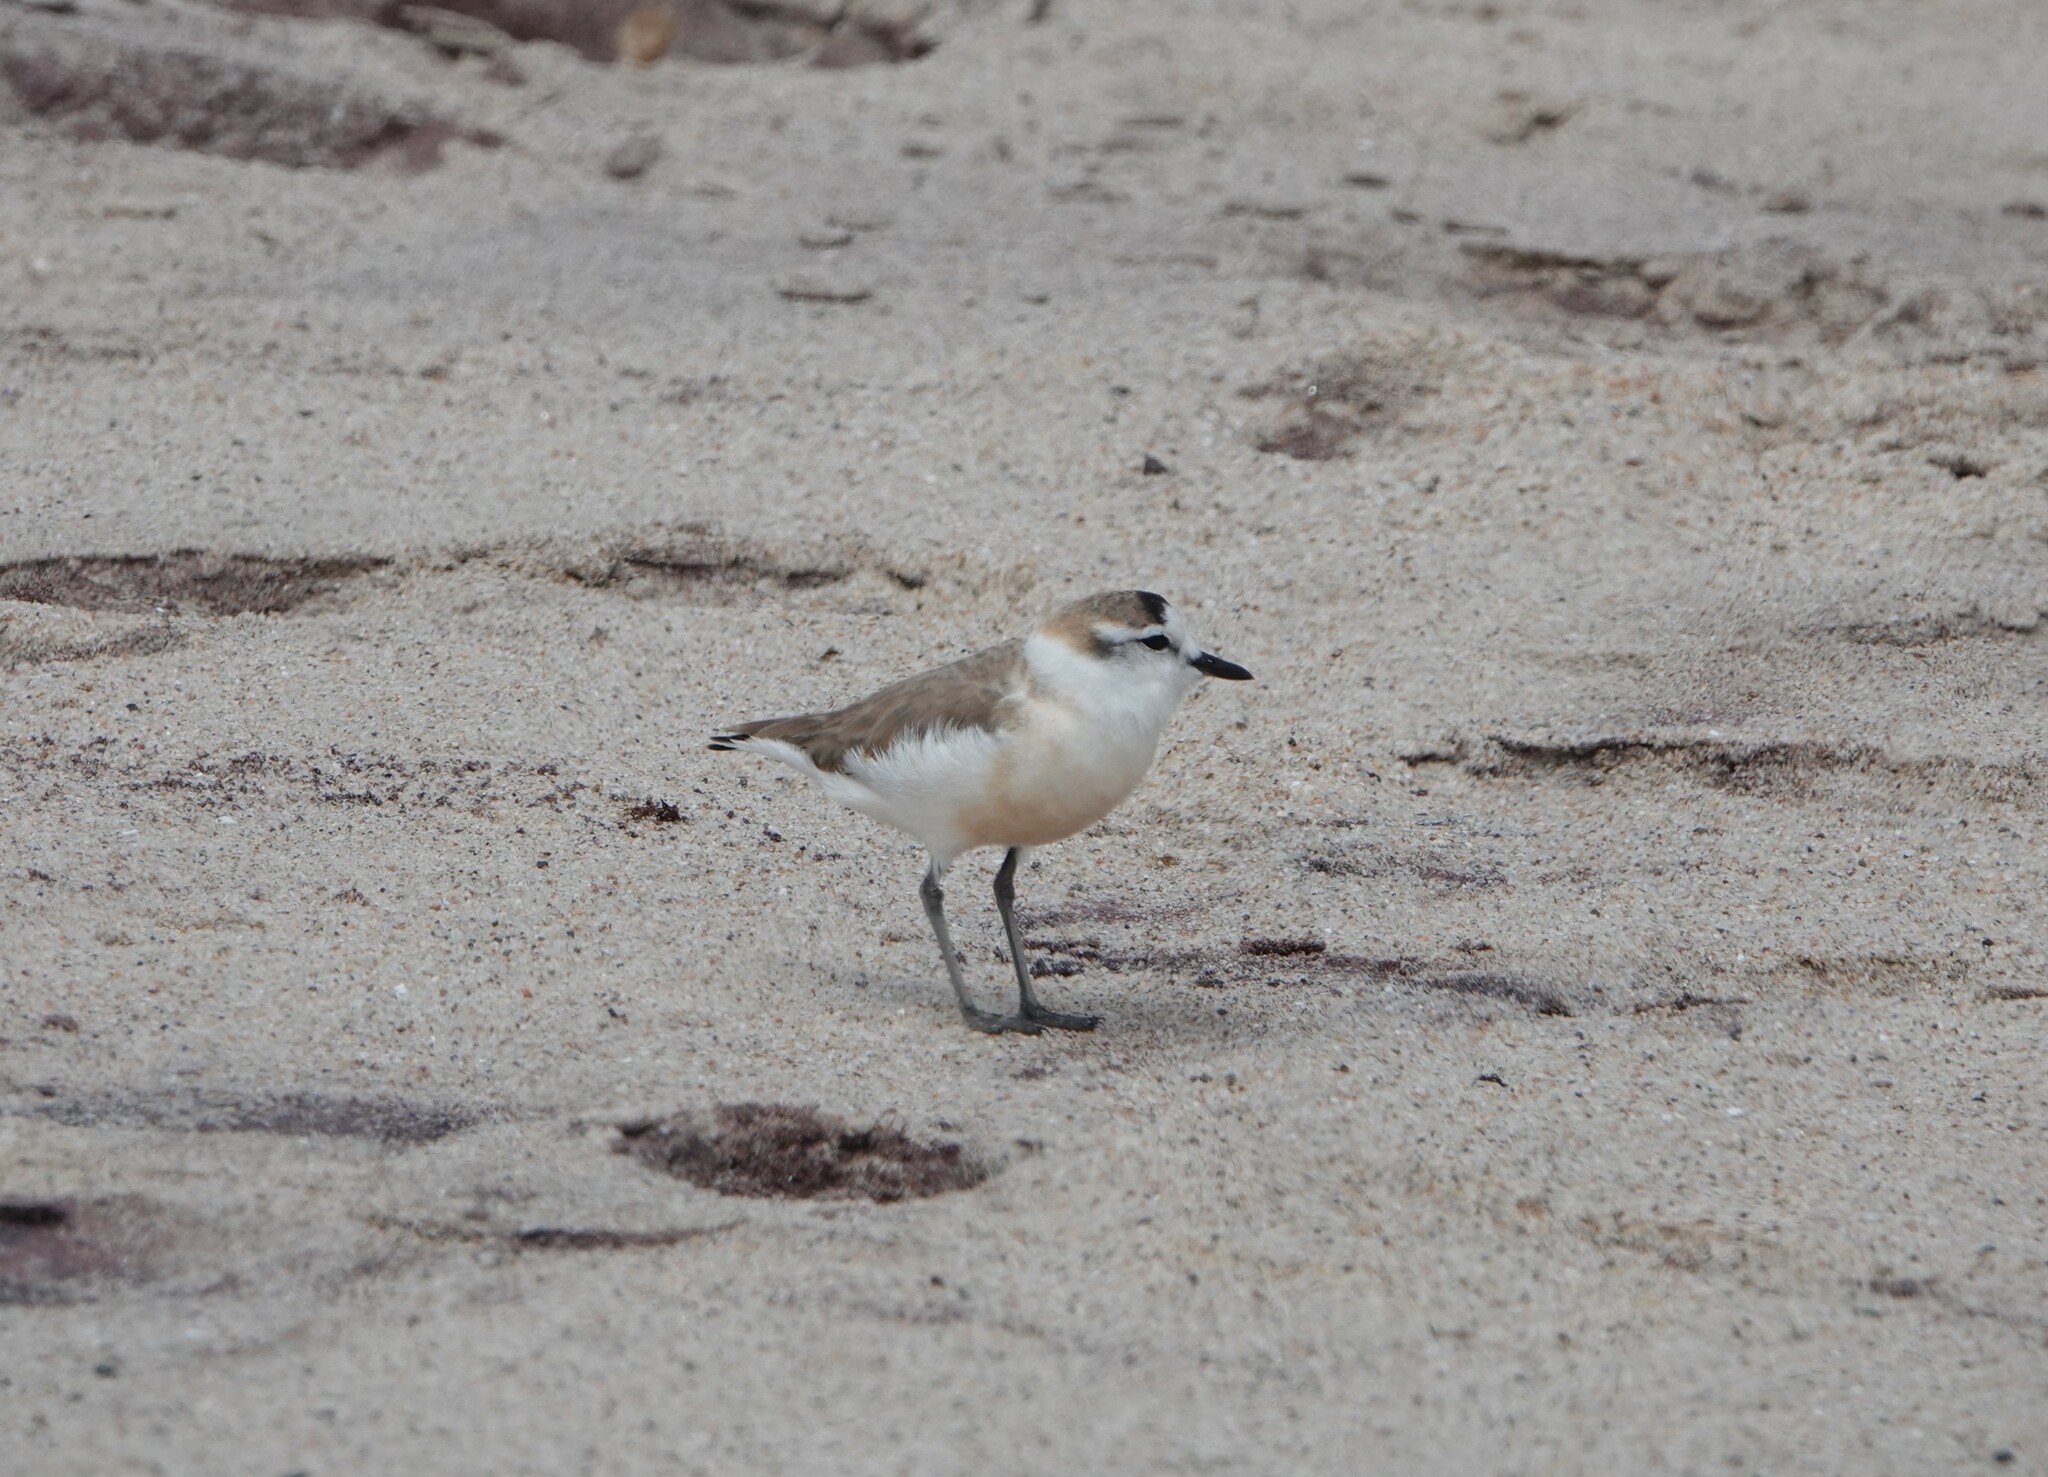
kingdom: Animalia
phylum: Chordata
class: Aves
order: Charadriiformes
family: Charadriidae
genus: Anarhynchus
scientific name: Anarhynchus
